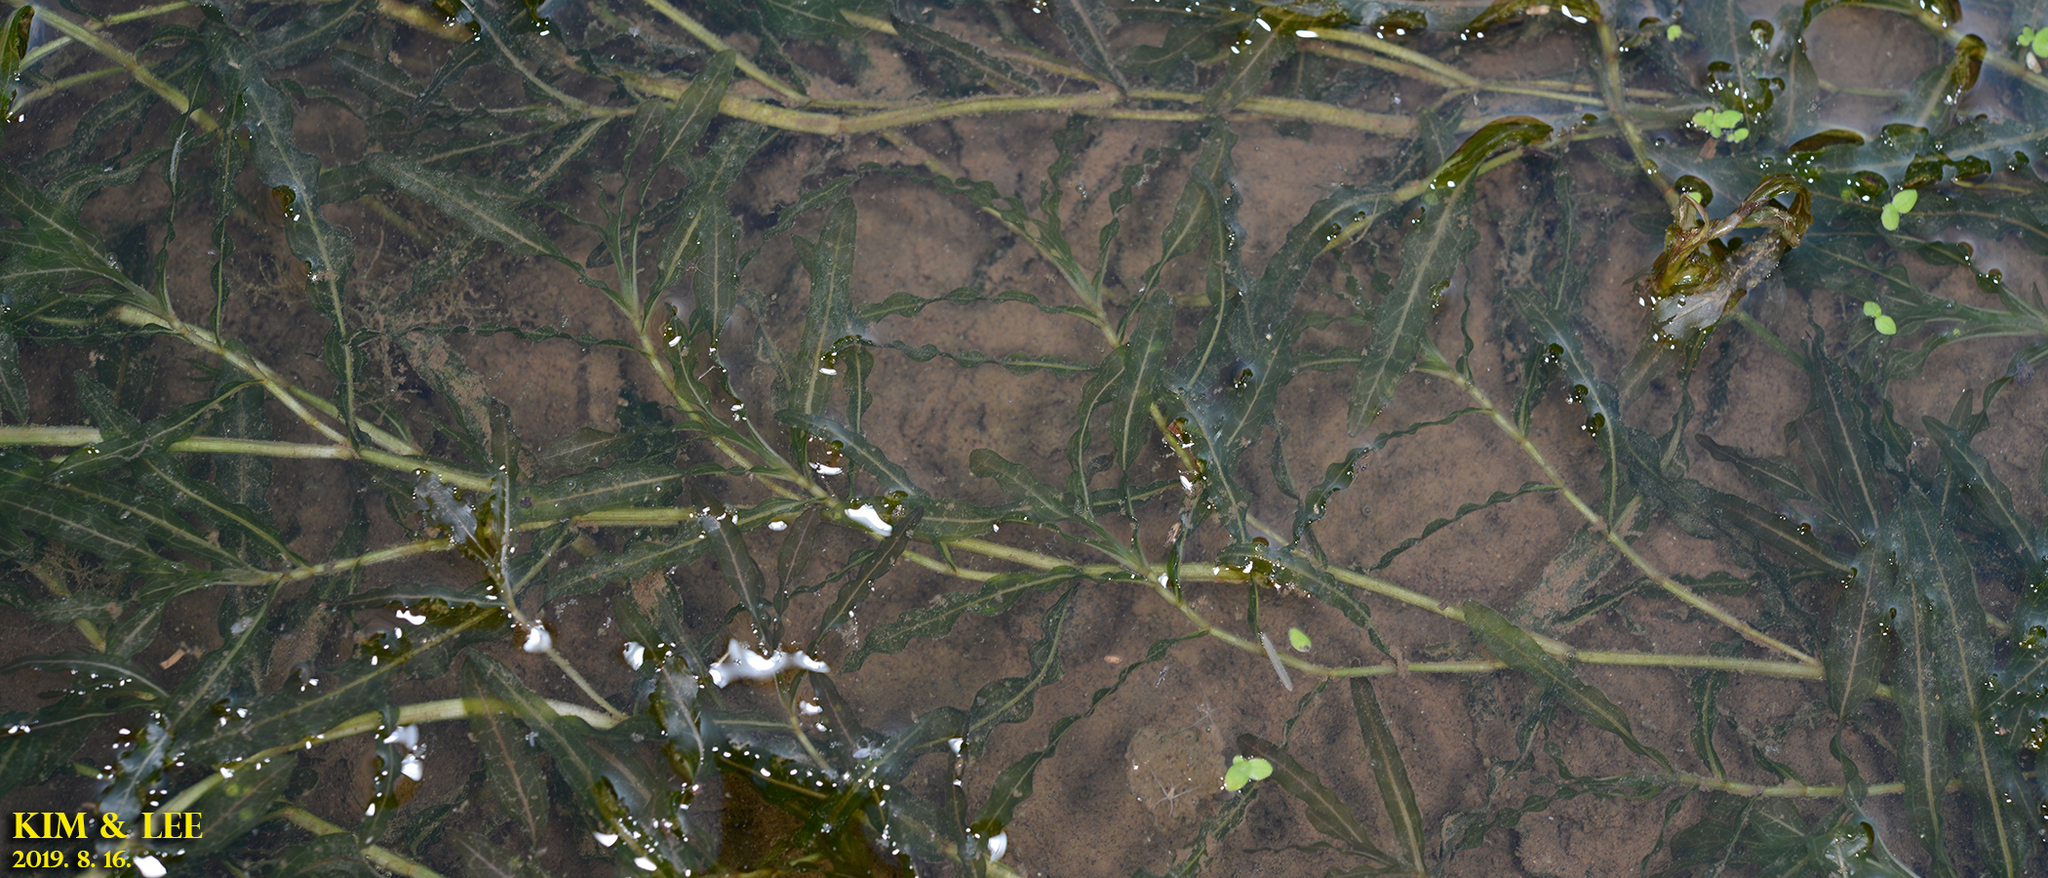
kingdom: Plantae
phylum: Tracheophyta
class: Liliopsida
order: Alismatales
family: Potamogetonaceae
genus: Potamogeton
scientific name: Potamogeton crispus
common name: Curled pondweed
